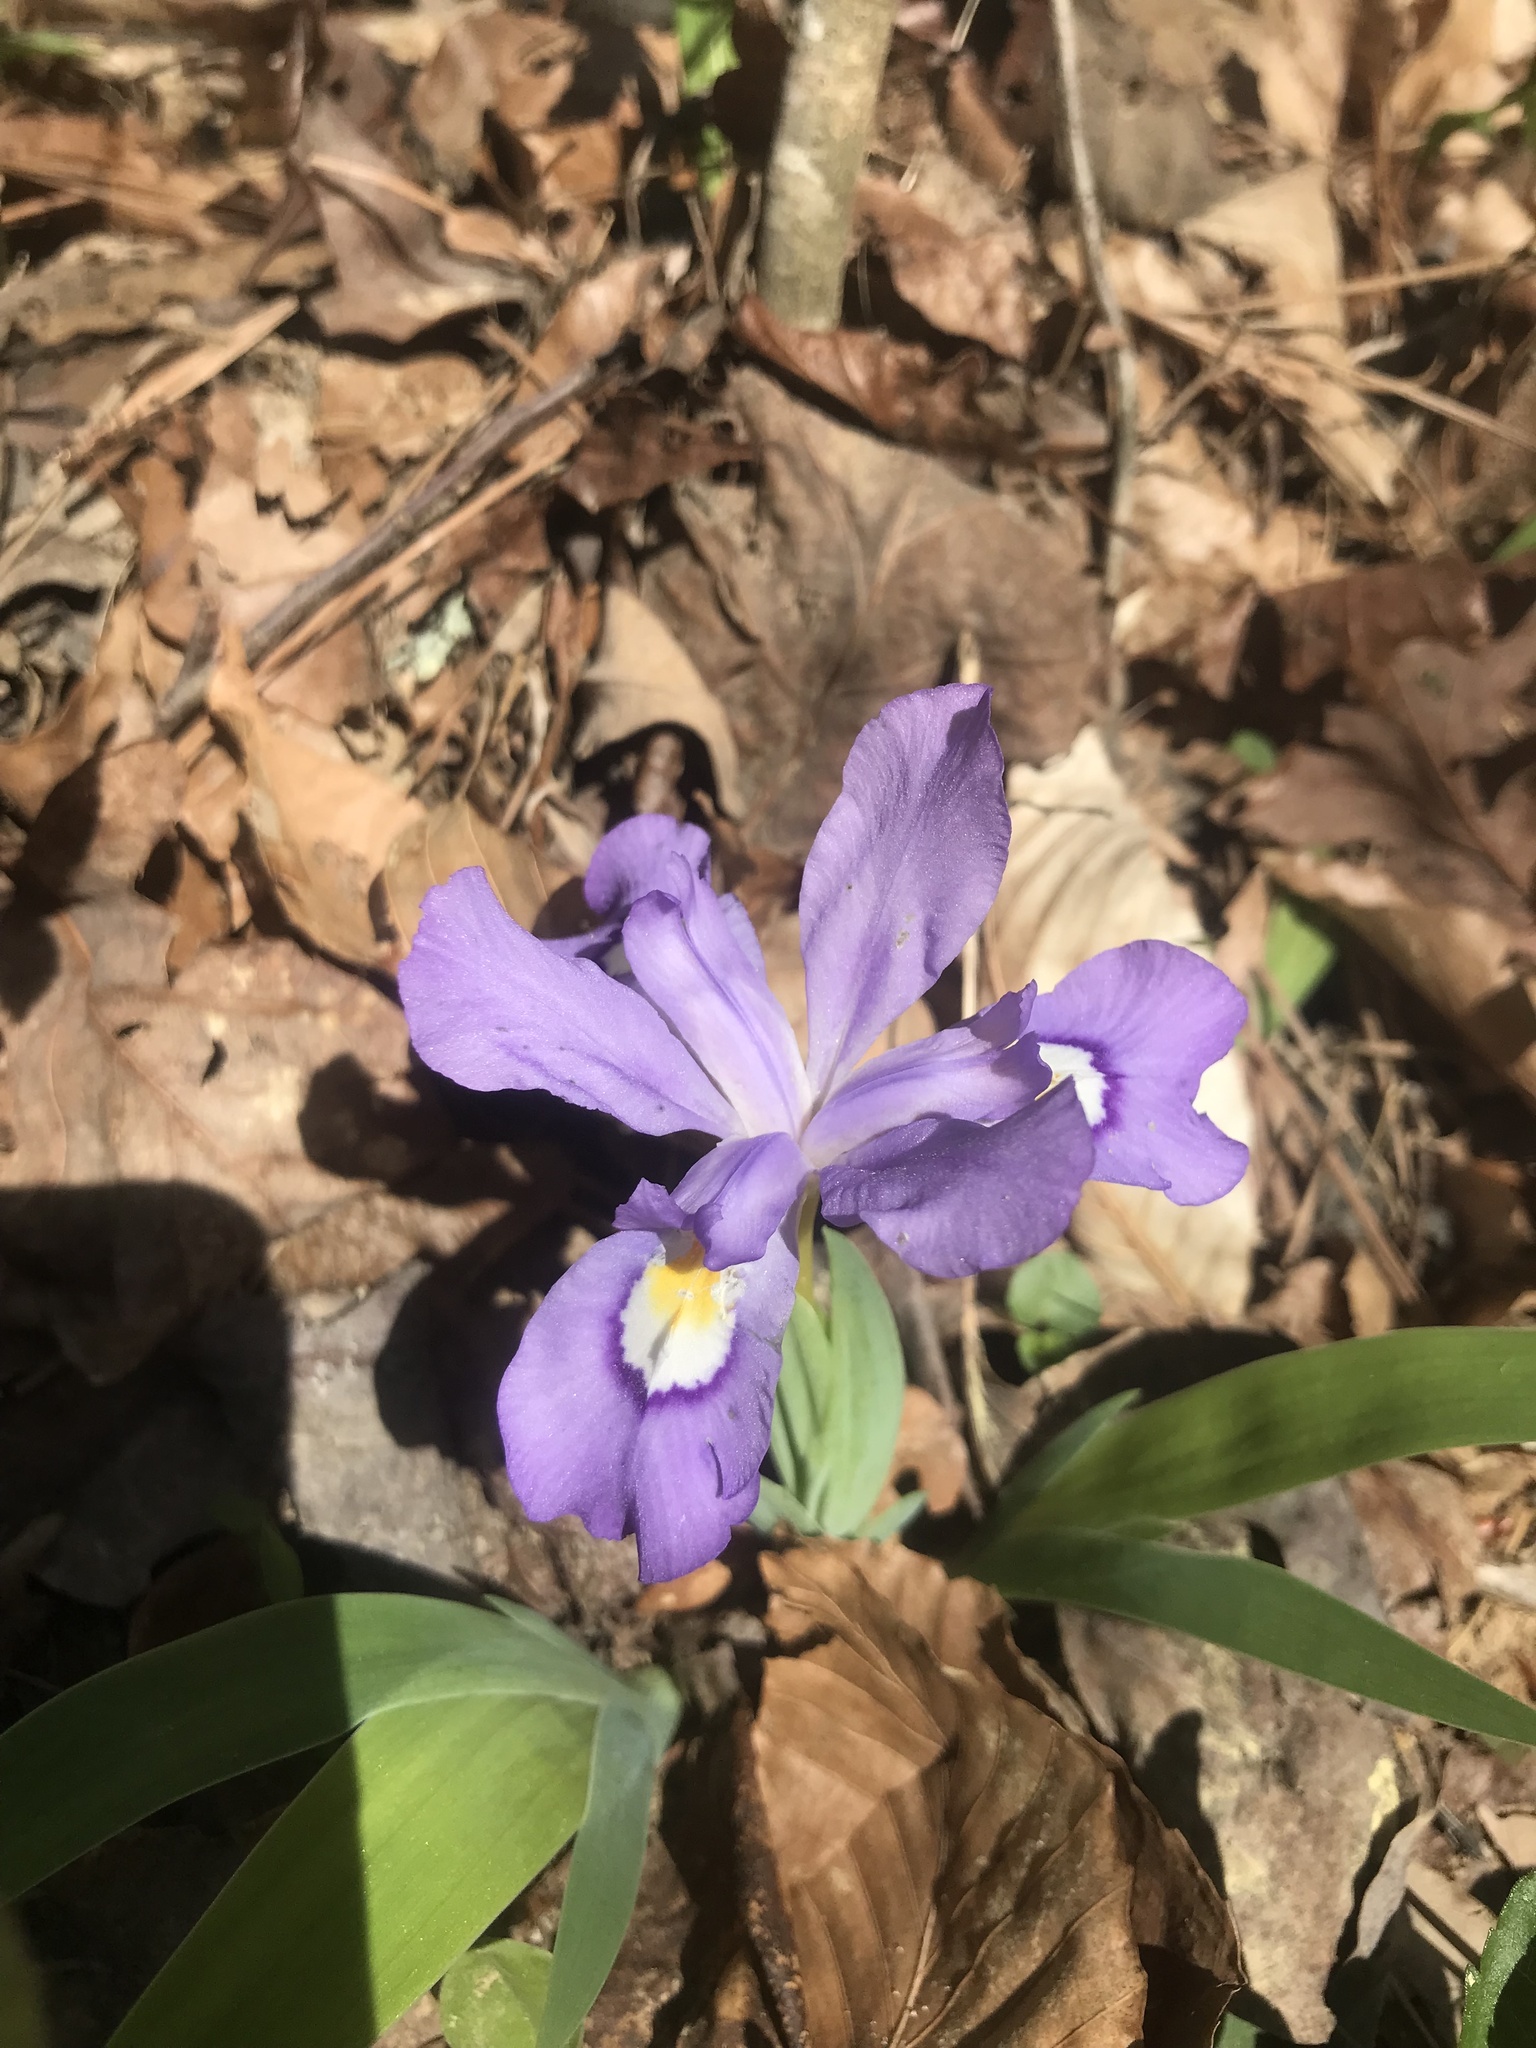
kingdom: Plantae
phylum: Tracheophyta
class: Liliopsida
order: Asparagales
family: Iridaceae
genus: Iris
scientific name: Iris cristata
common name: Crested iris
